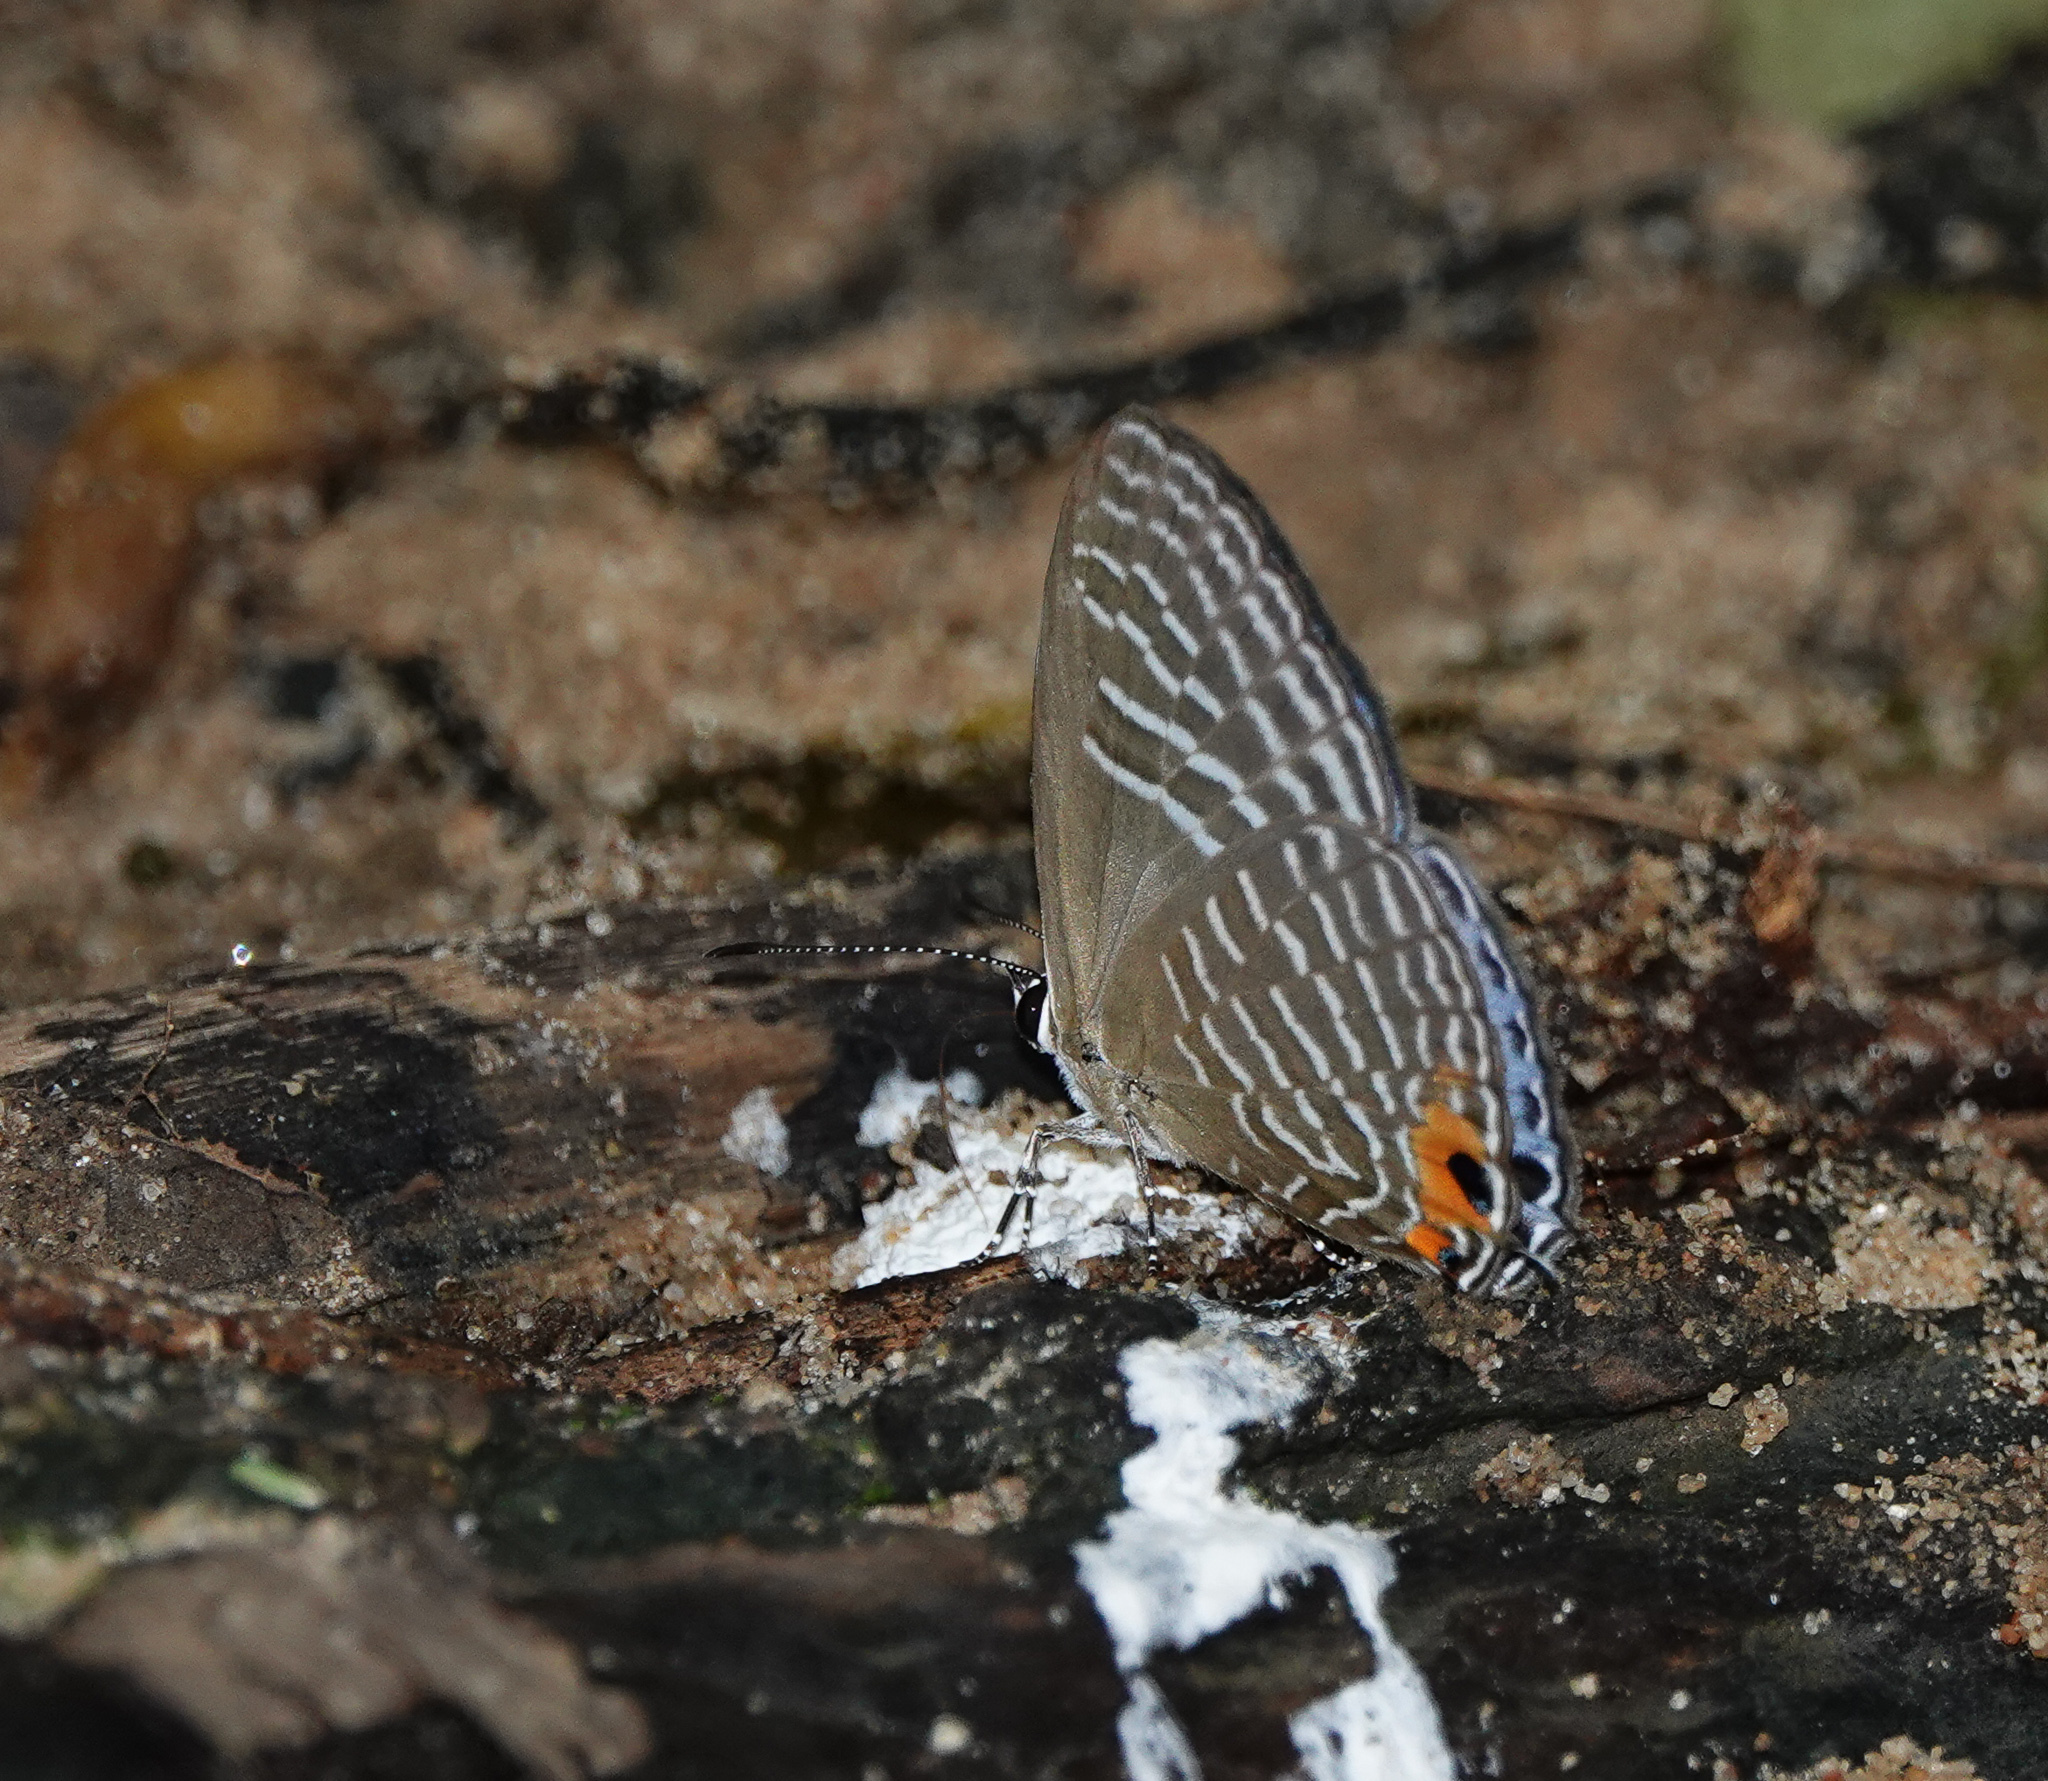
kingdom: Animalia
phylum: Arthropoda
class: Insecta
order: Lepidoptera
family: Lycaenidae
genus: Jamides
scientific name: Jamides alecto
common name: Metallic cerulean
